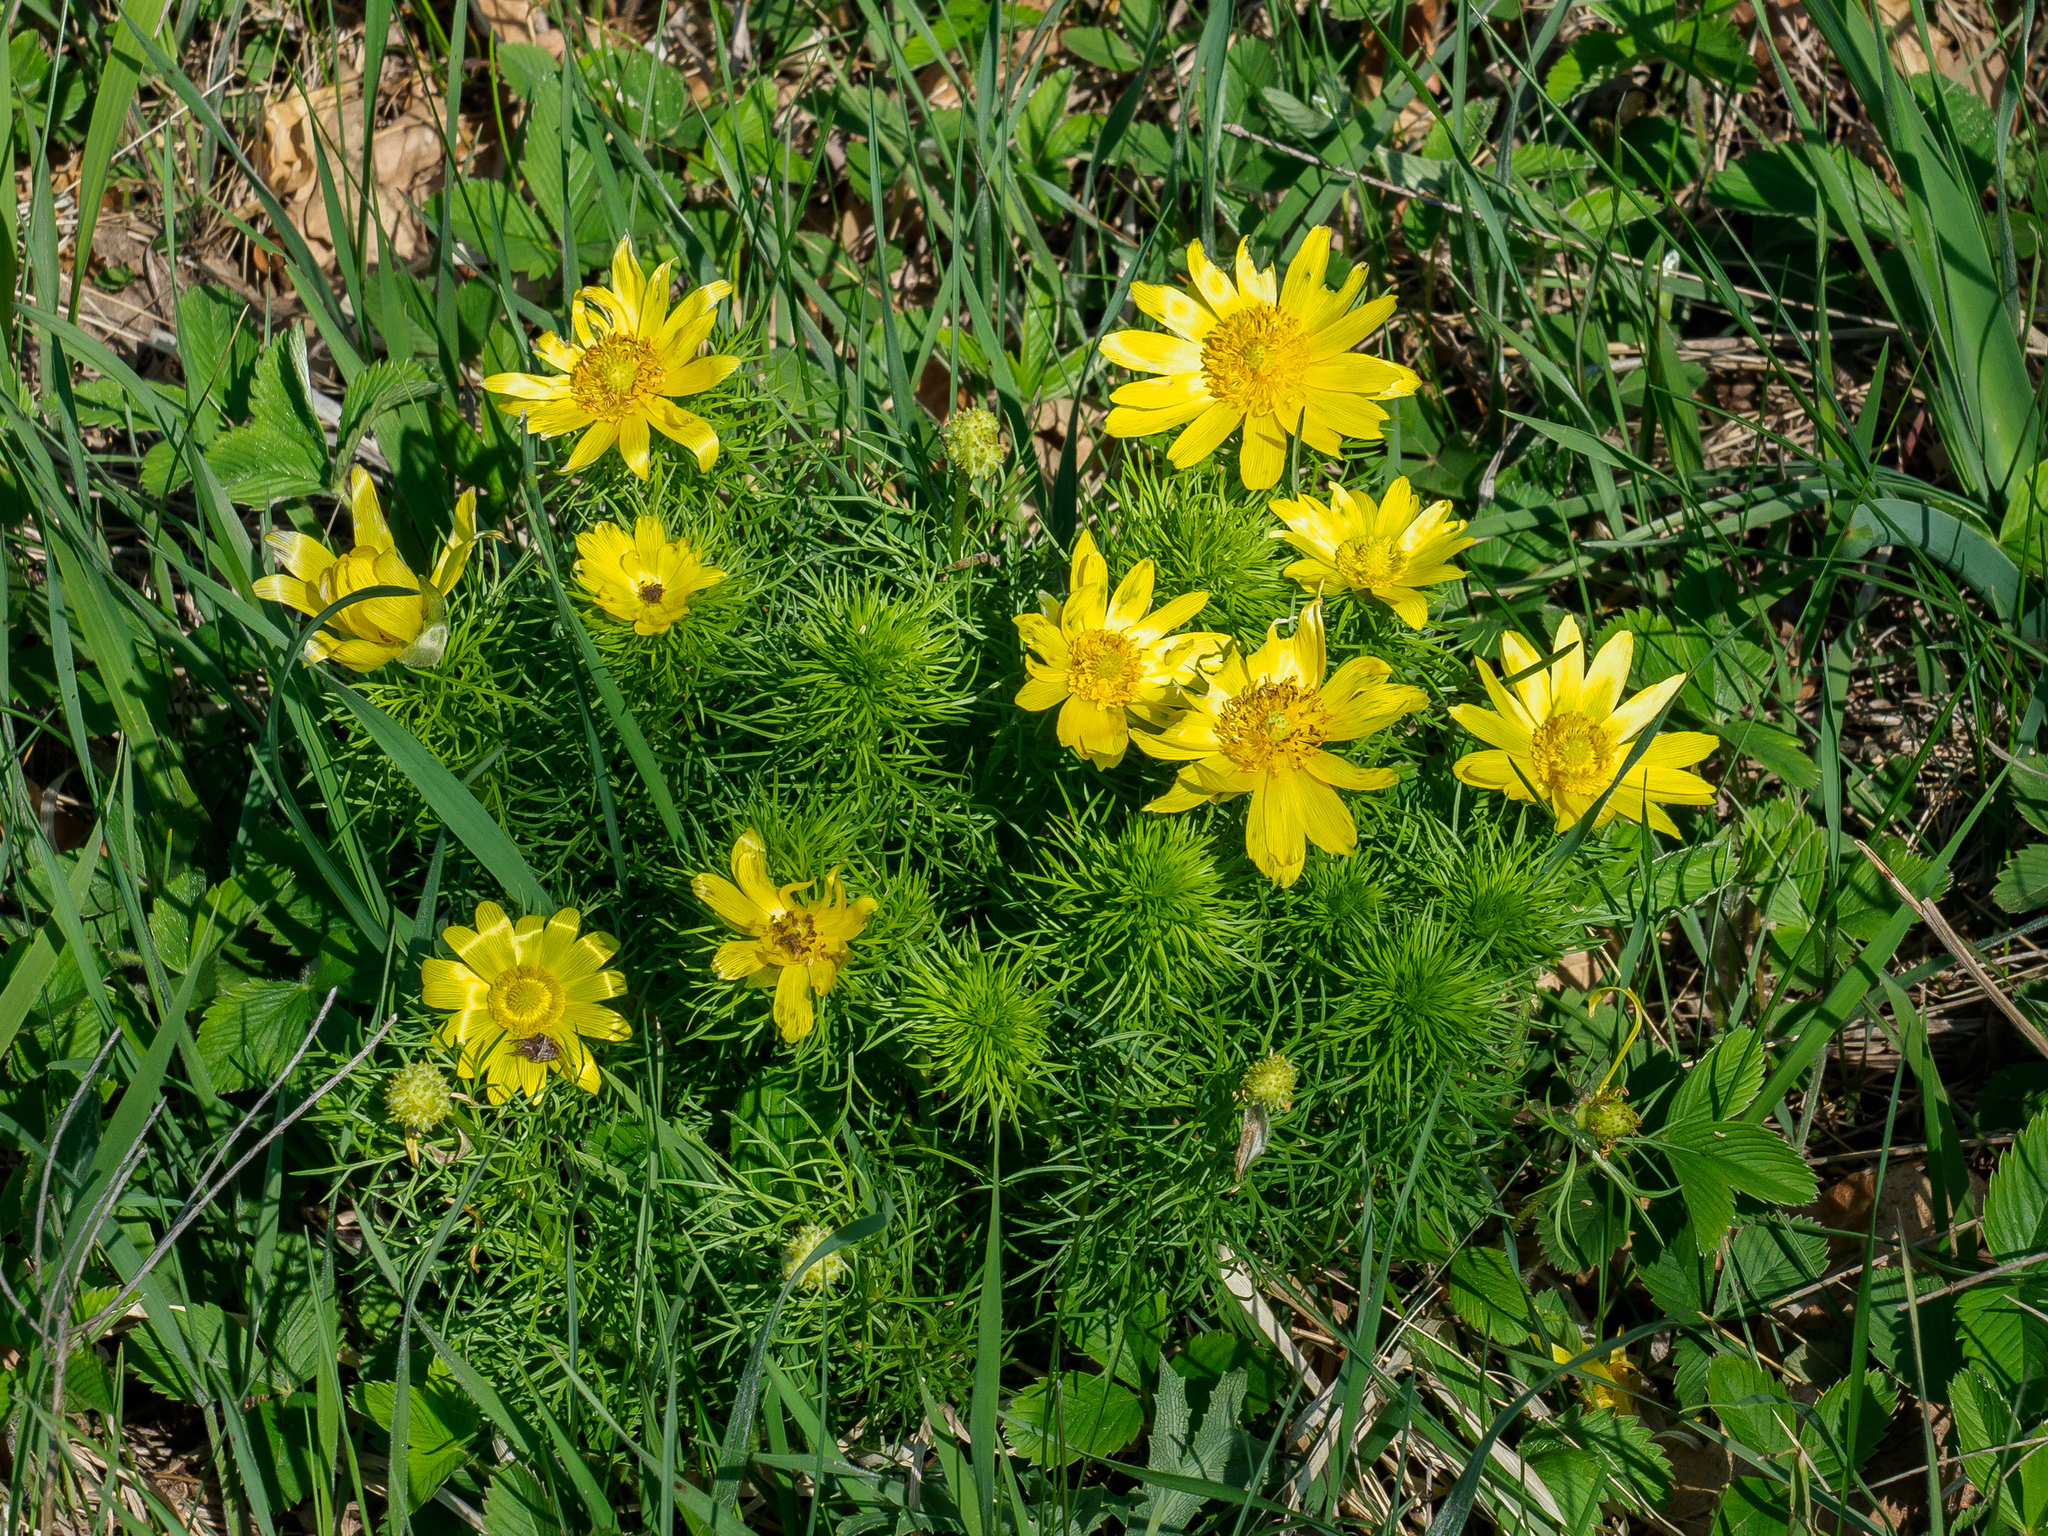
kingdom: Plantae
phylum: Tracheophyta
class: Magnoliopsida
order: Ranunculales
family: Ranunculaceae
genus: Adonis
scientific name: Adonis vernalis
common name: Yellow pheasants-eye
